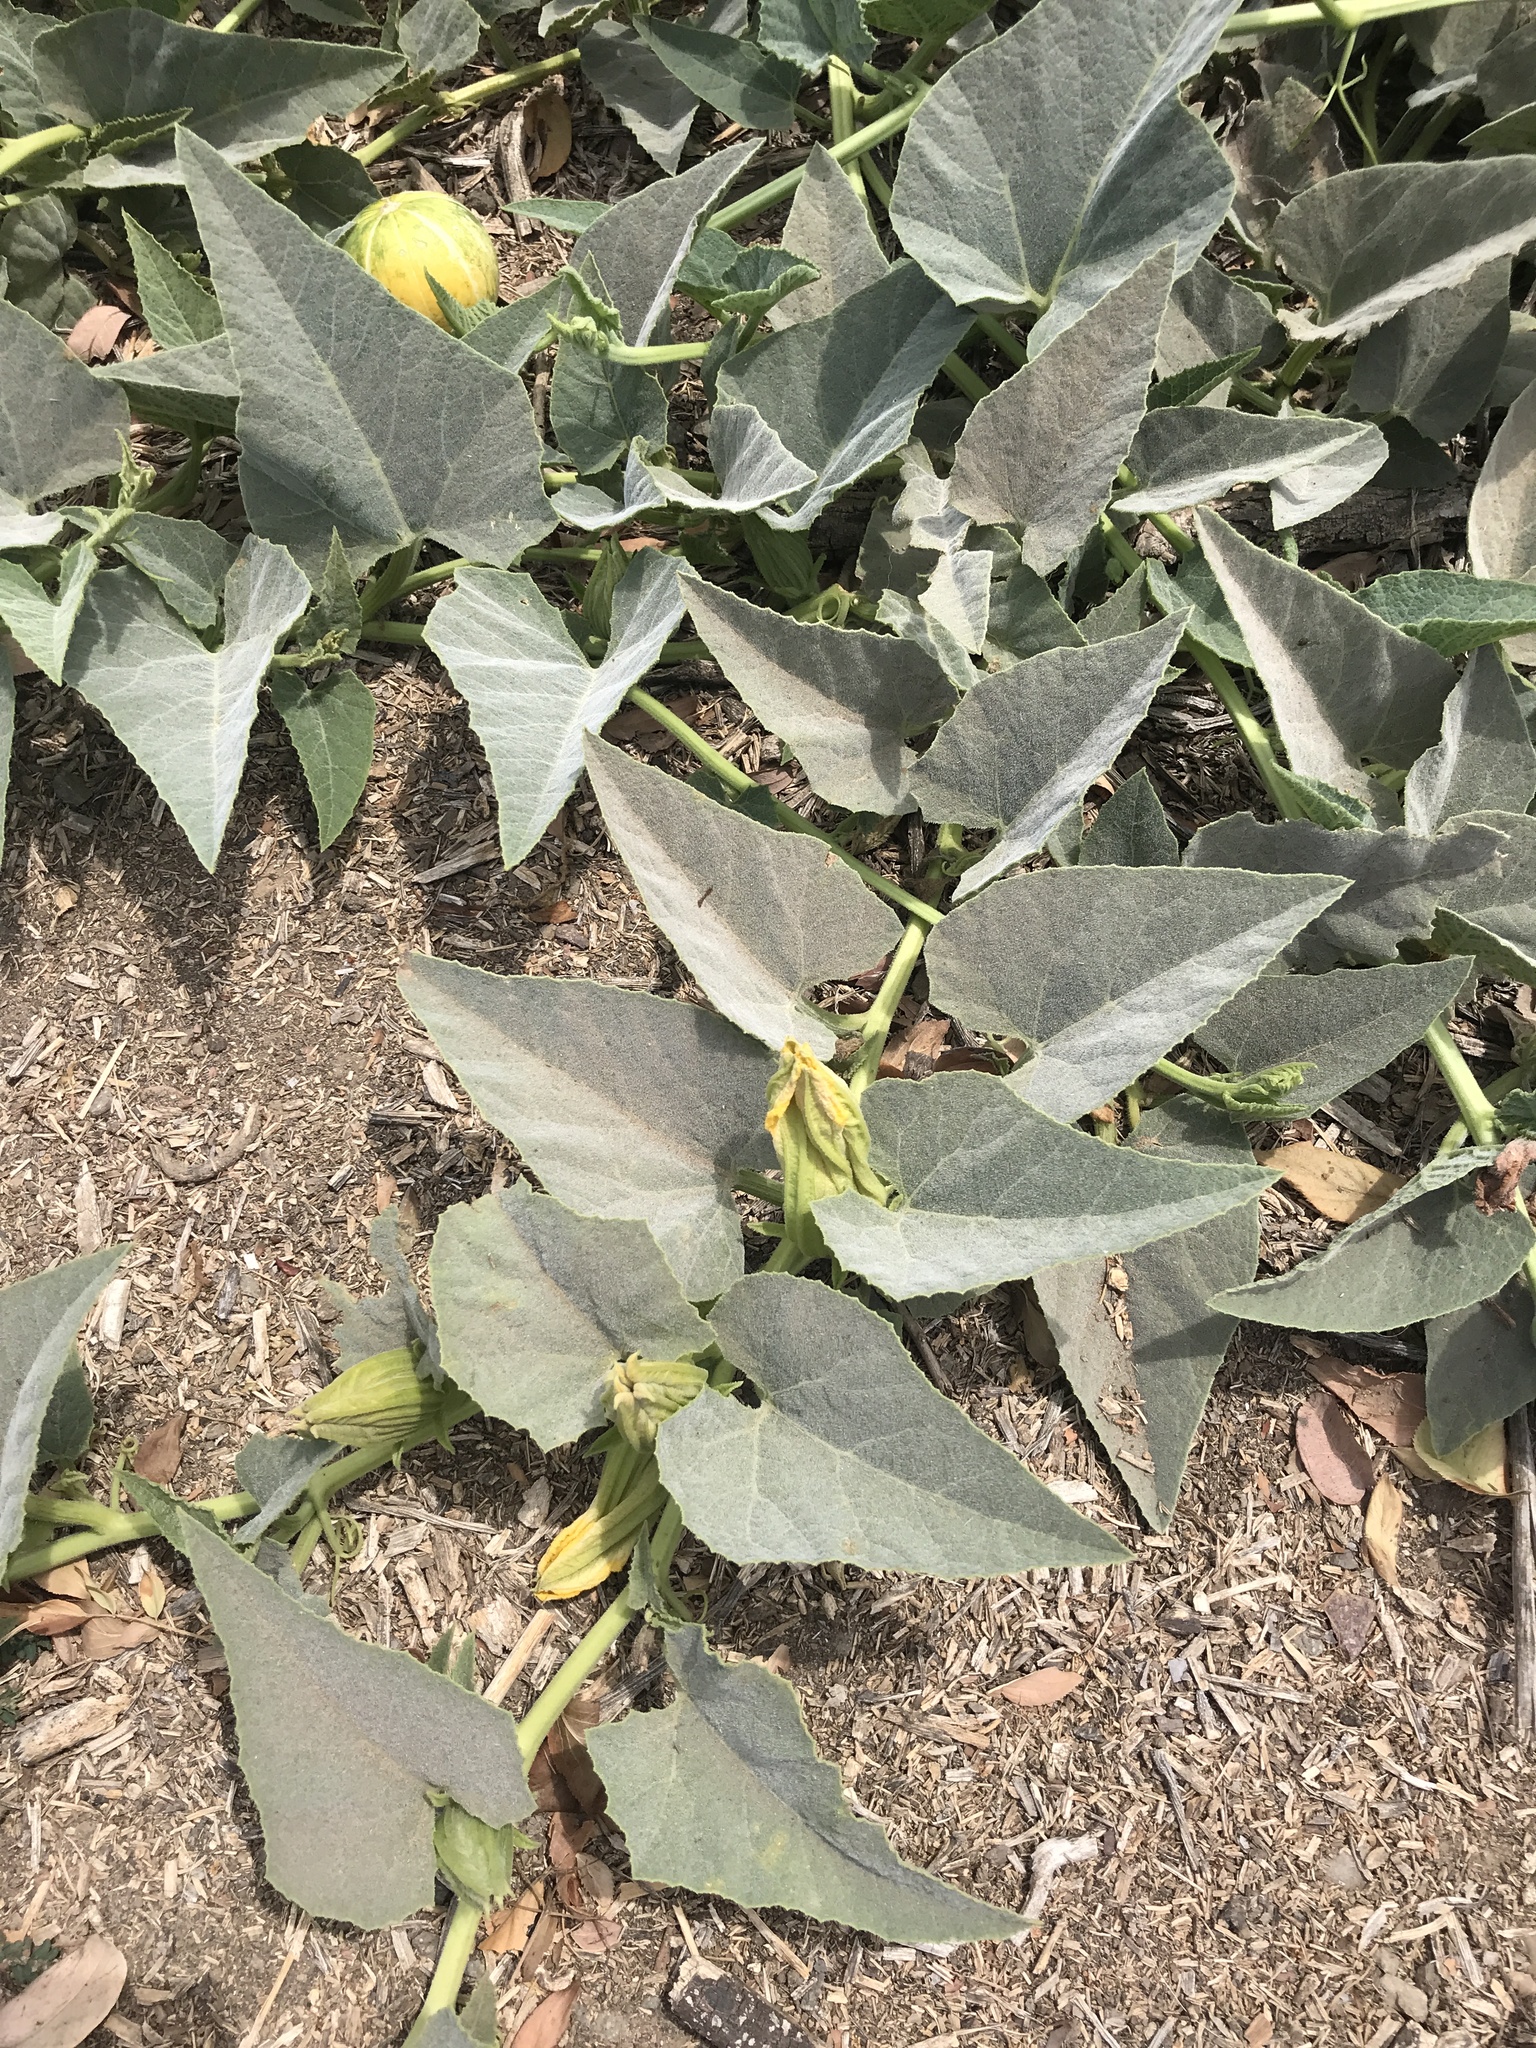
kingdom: Plantae
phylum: Tracheophyta
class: Magnoliopsida
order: Cucurbitales
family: Cucurbitaceae
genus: Cucurbita
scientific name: Cucurbita foetidissima
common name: Buffalo gourd
